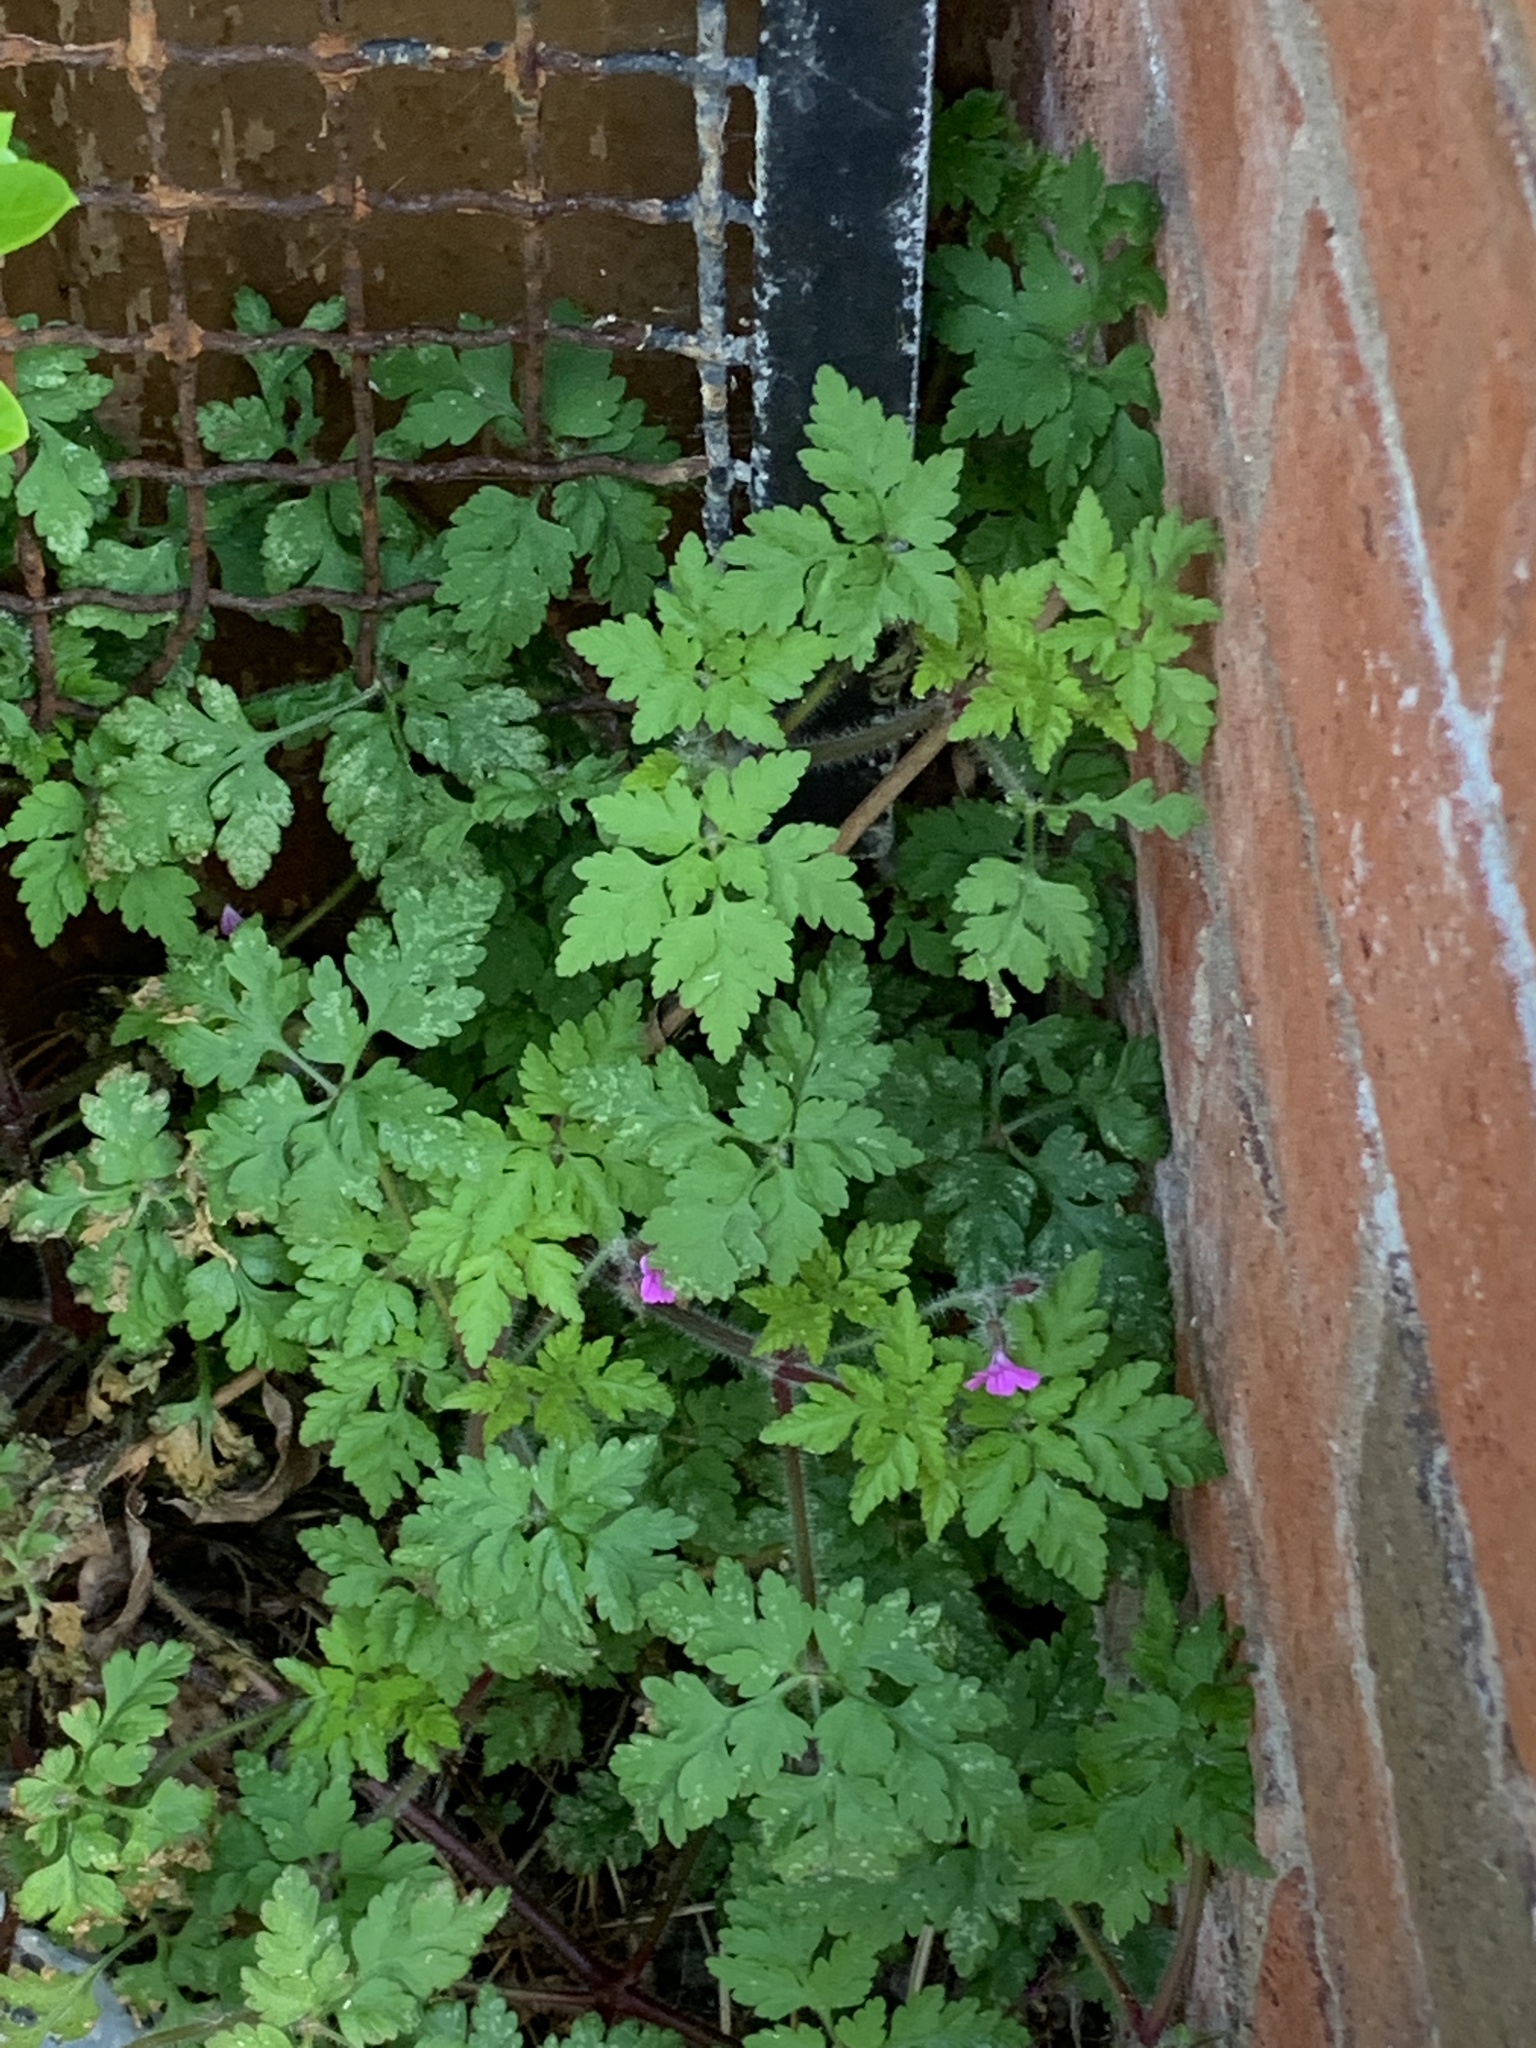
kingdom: Plantae
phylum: Tracheophyta
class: Magnoliopsida
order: Geraniales
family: Geraniaceae
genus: Geranium
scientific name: Geranium robertianum
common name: Herb-robert
